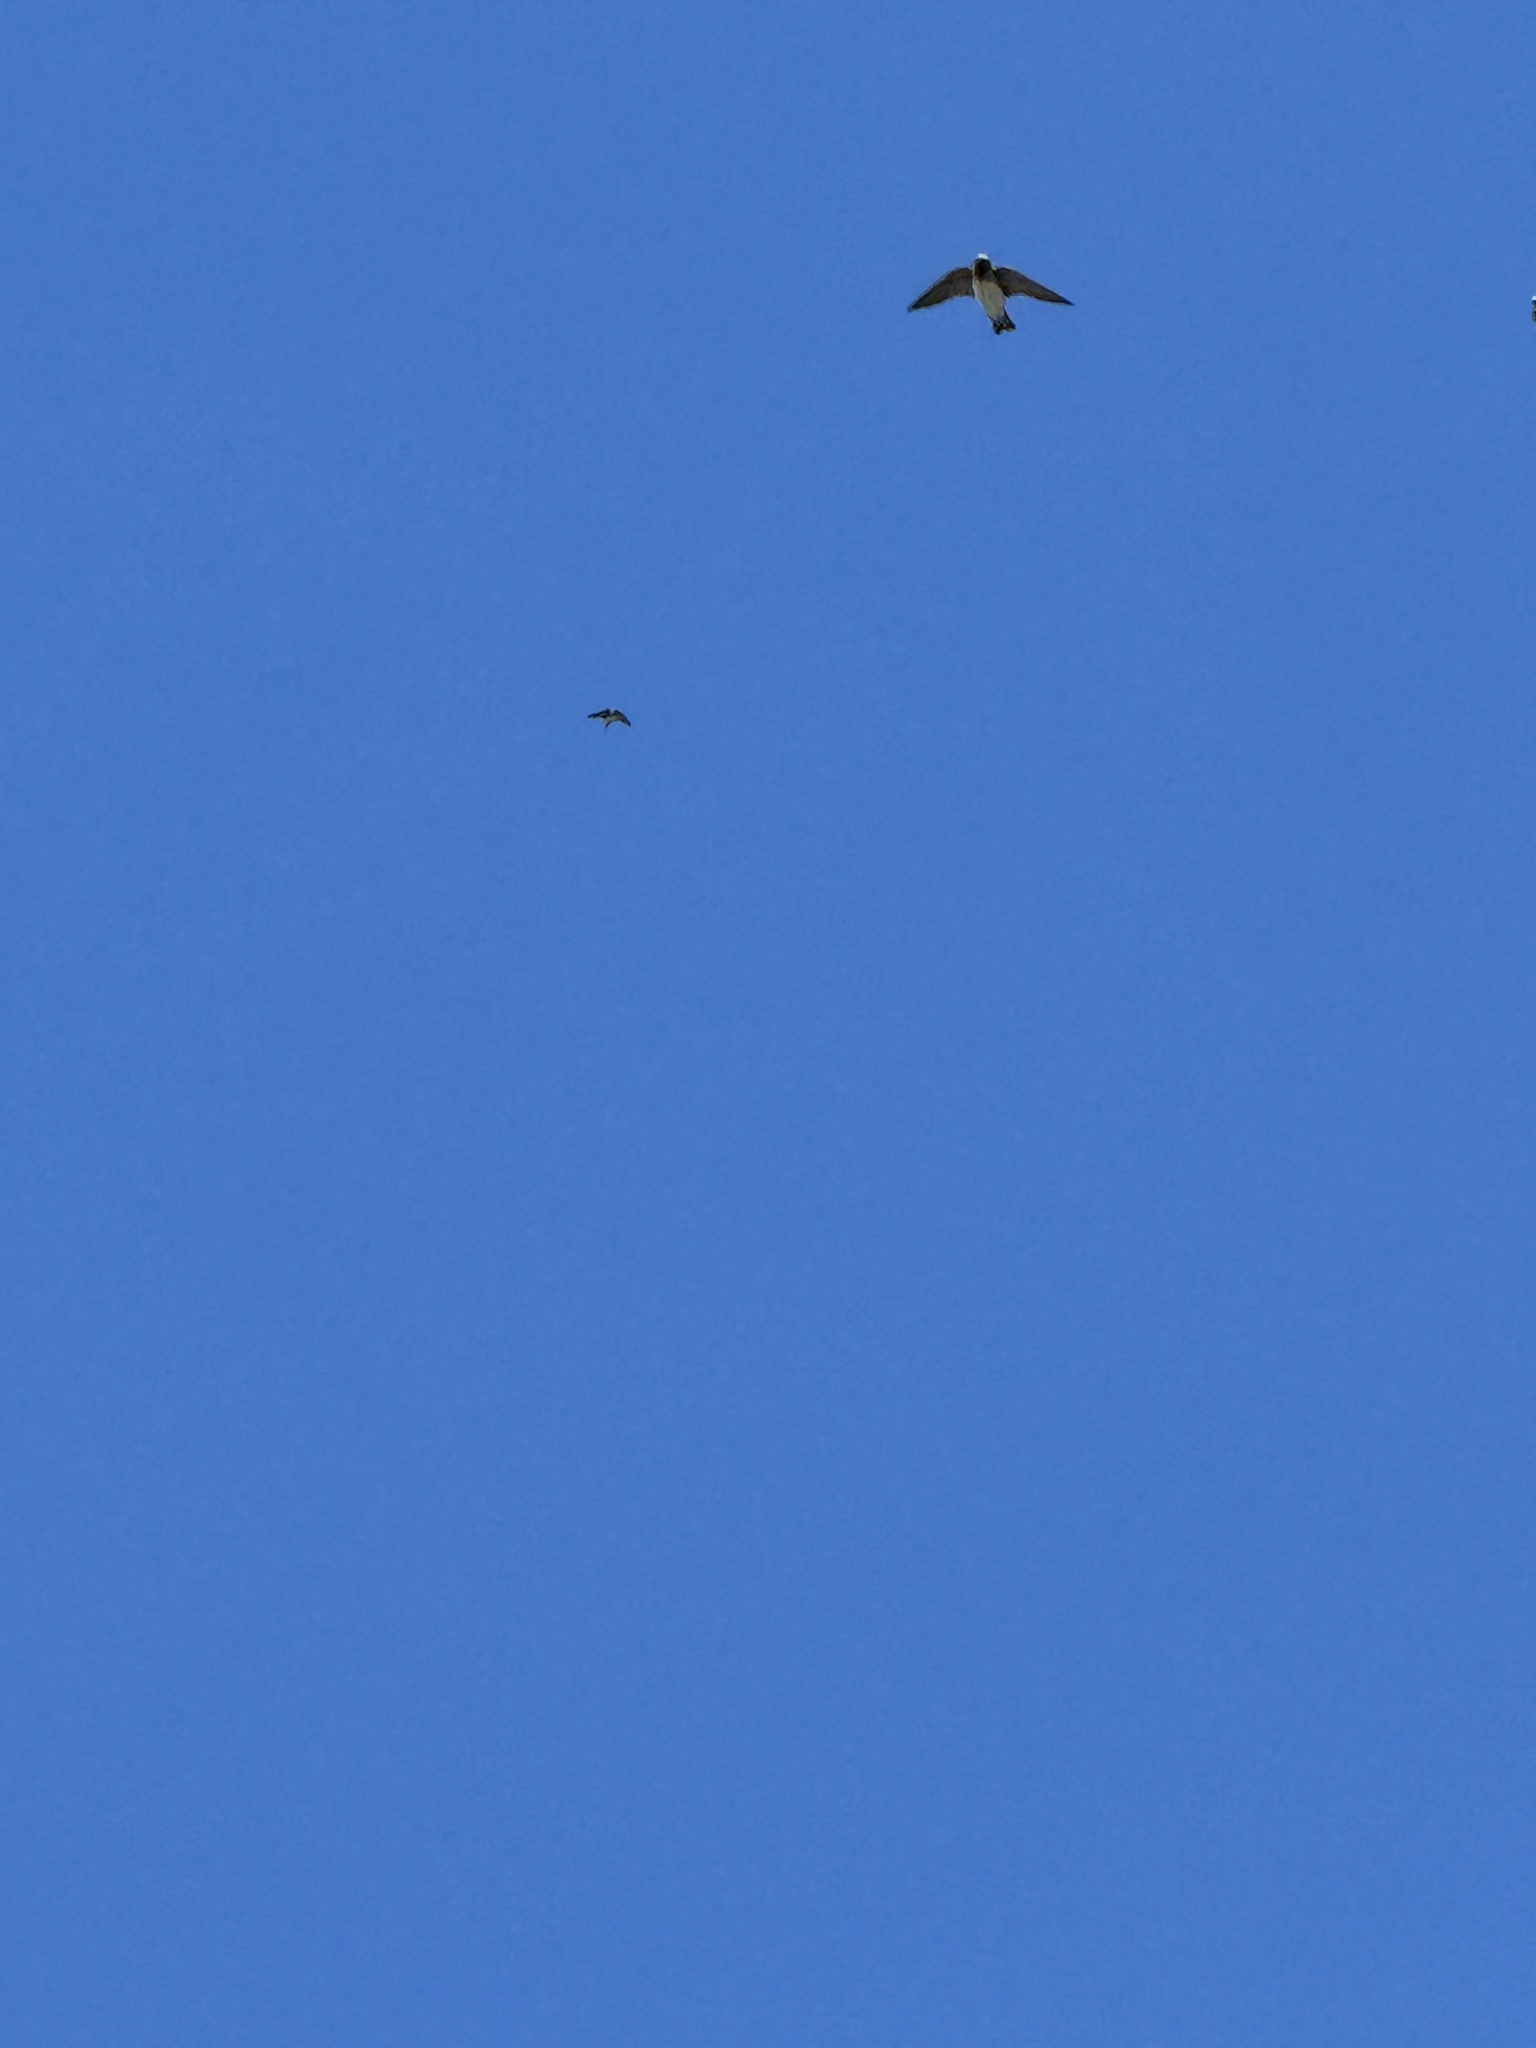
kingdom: Animalia
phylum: Chordata
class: Aves
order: Passeriformes
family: Hirundinidae
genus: Petrochelidon
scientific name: Petrochelidon pyrrhonota
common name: American cliff swallow
